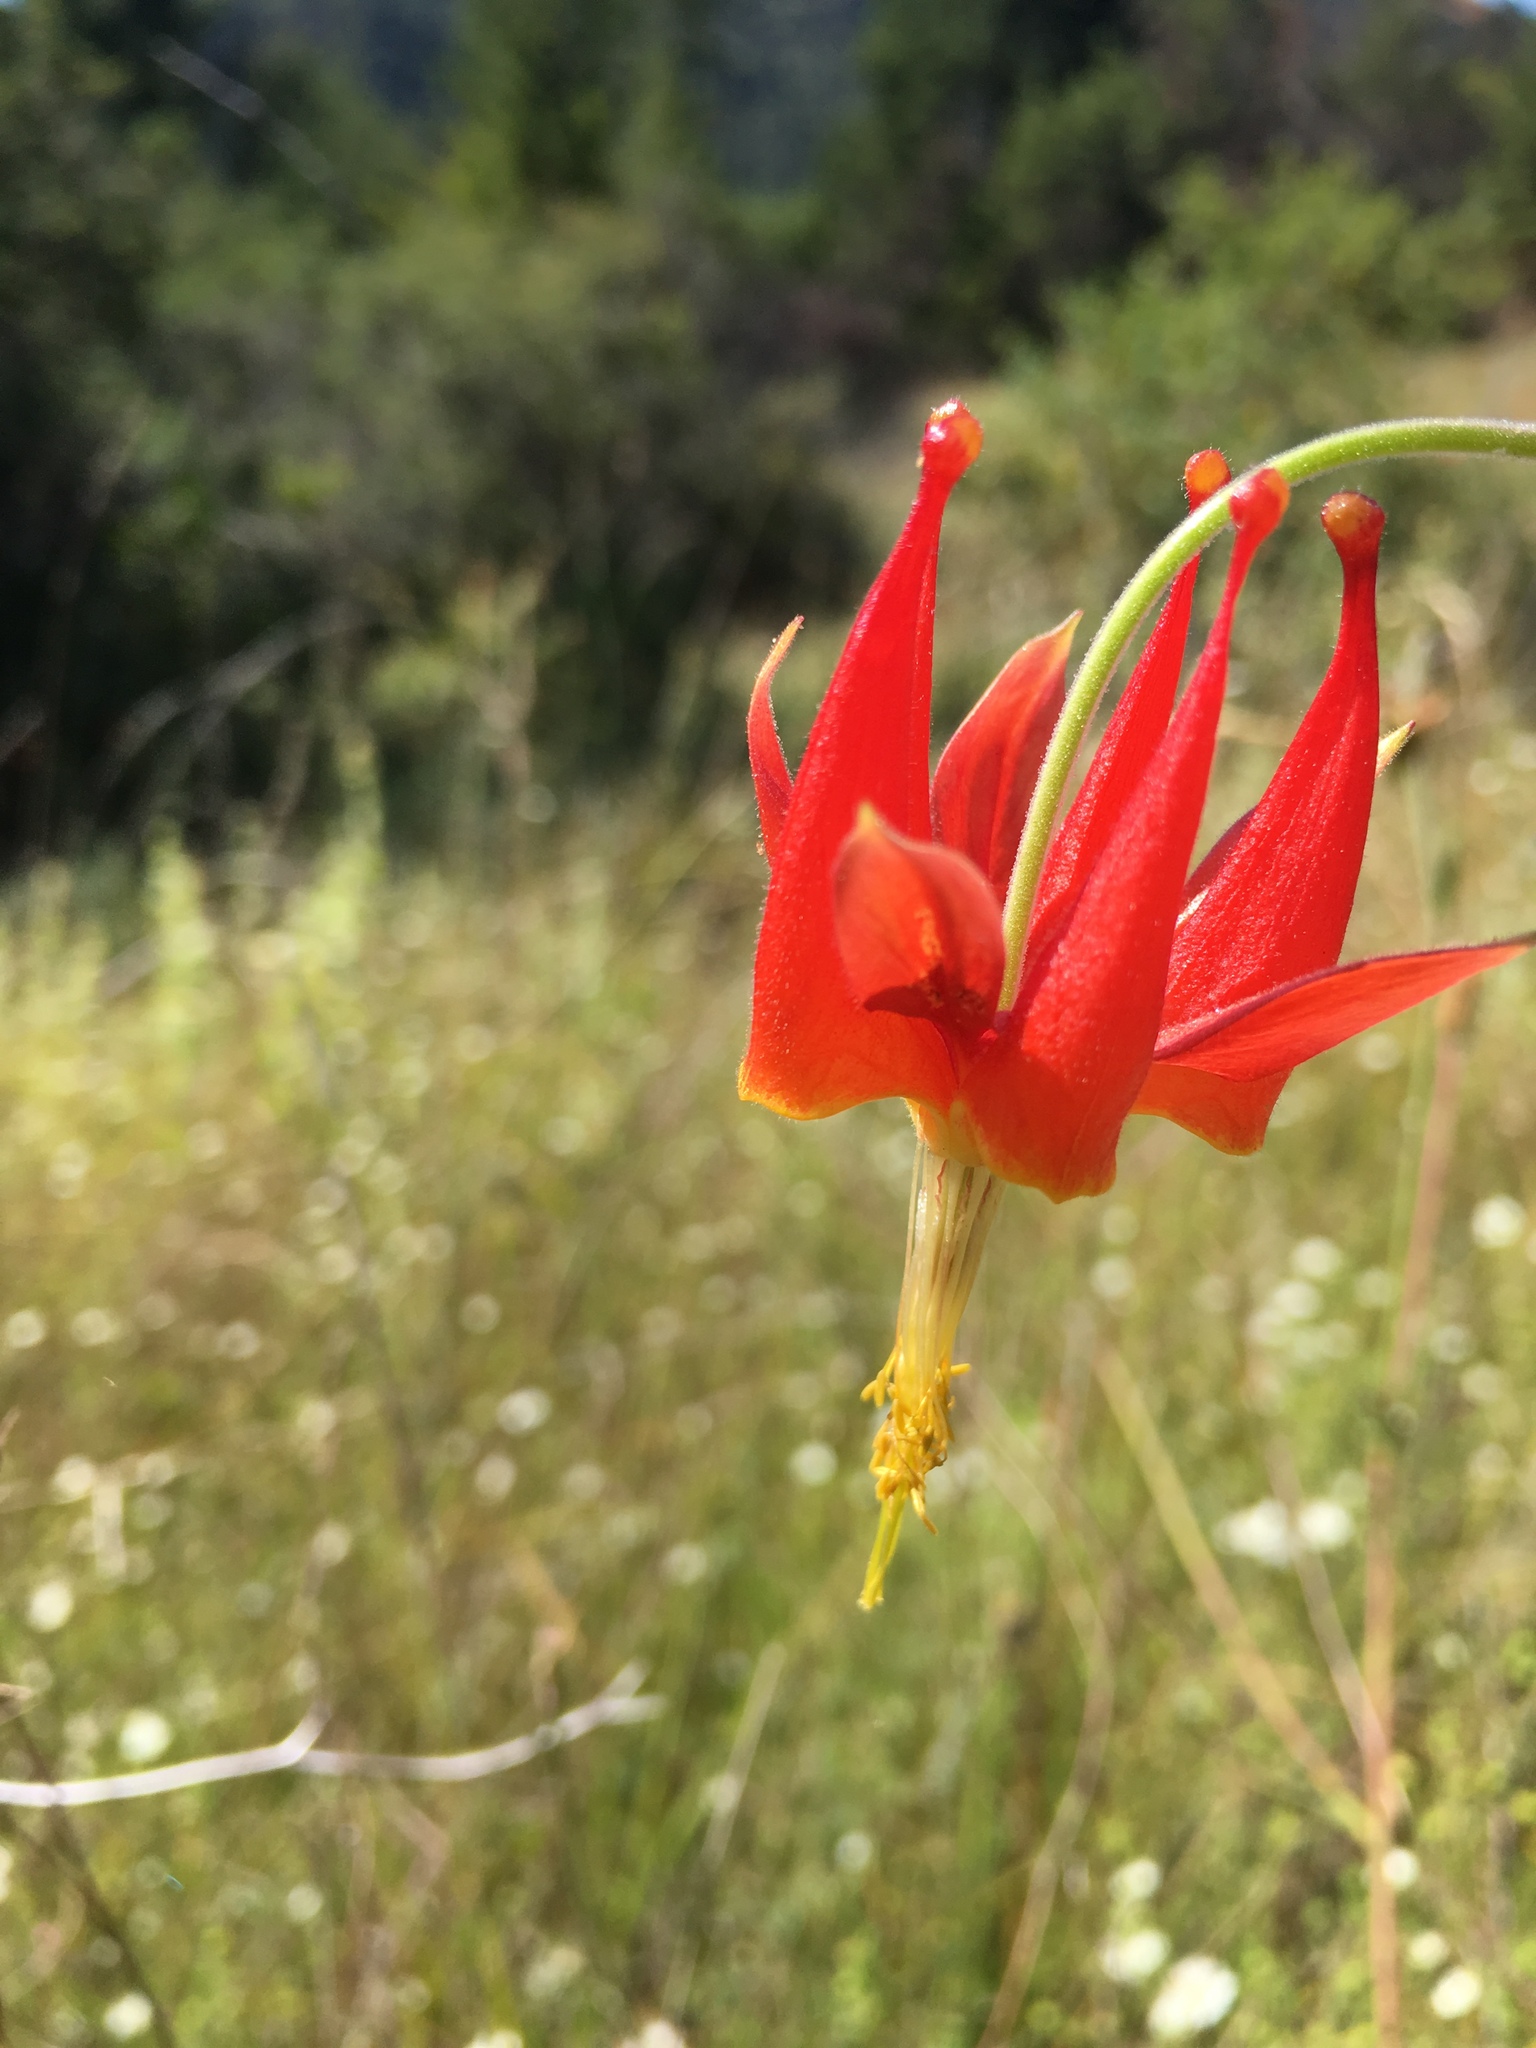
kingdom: Plantae
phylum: Tracheophyta
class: Magnoliopsida
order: Ranunculales
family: Ranunculaceae
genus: Aquilegia
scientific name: Aquilegia eximia
